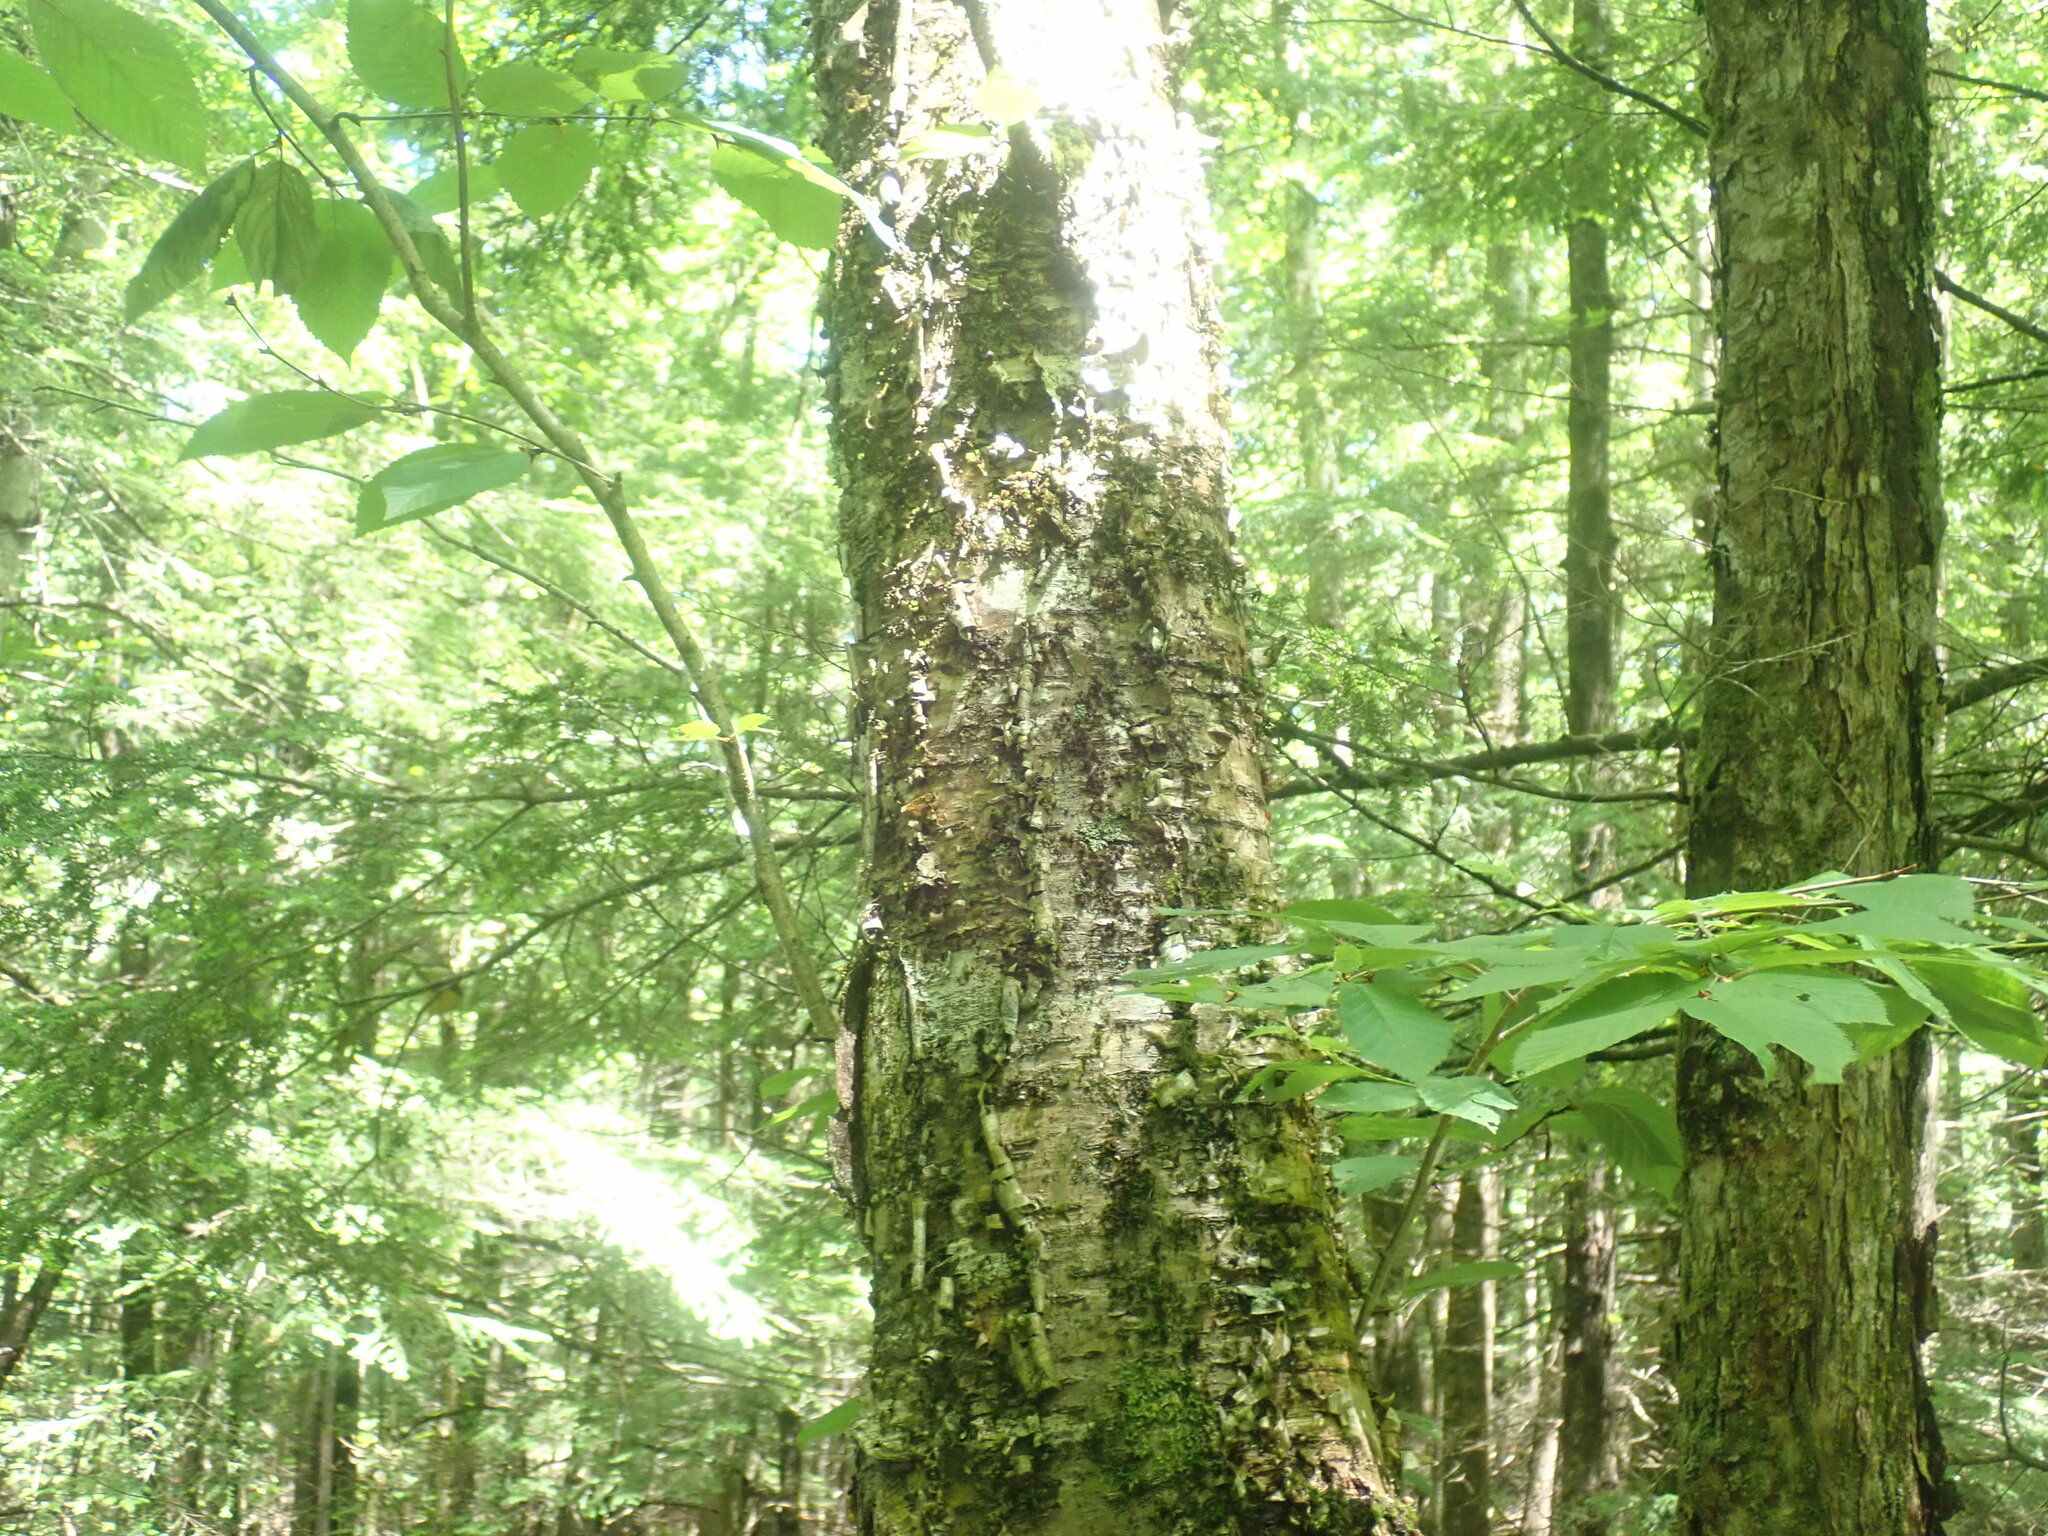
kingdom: Plantae
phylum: Tracheophyta
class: Magnoliopsida
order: Fagales
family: Betulaceae
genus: Betula
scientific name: Betula alleghaniensis
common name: Yellow birch
